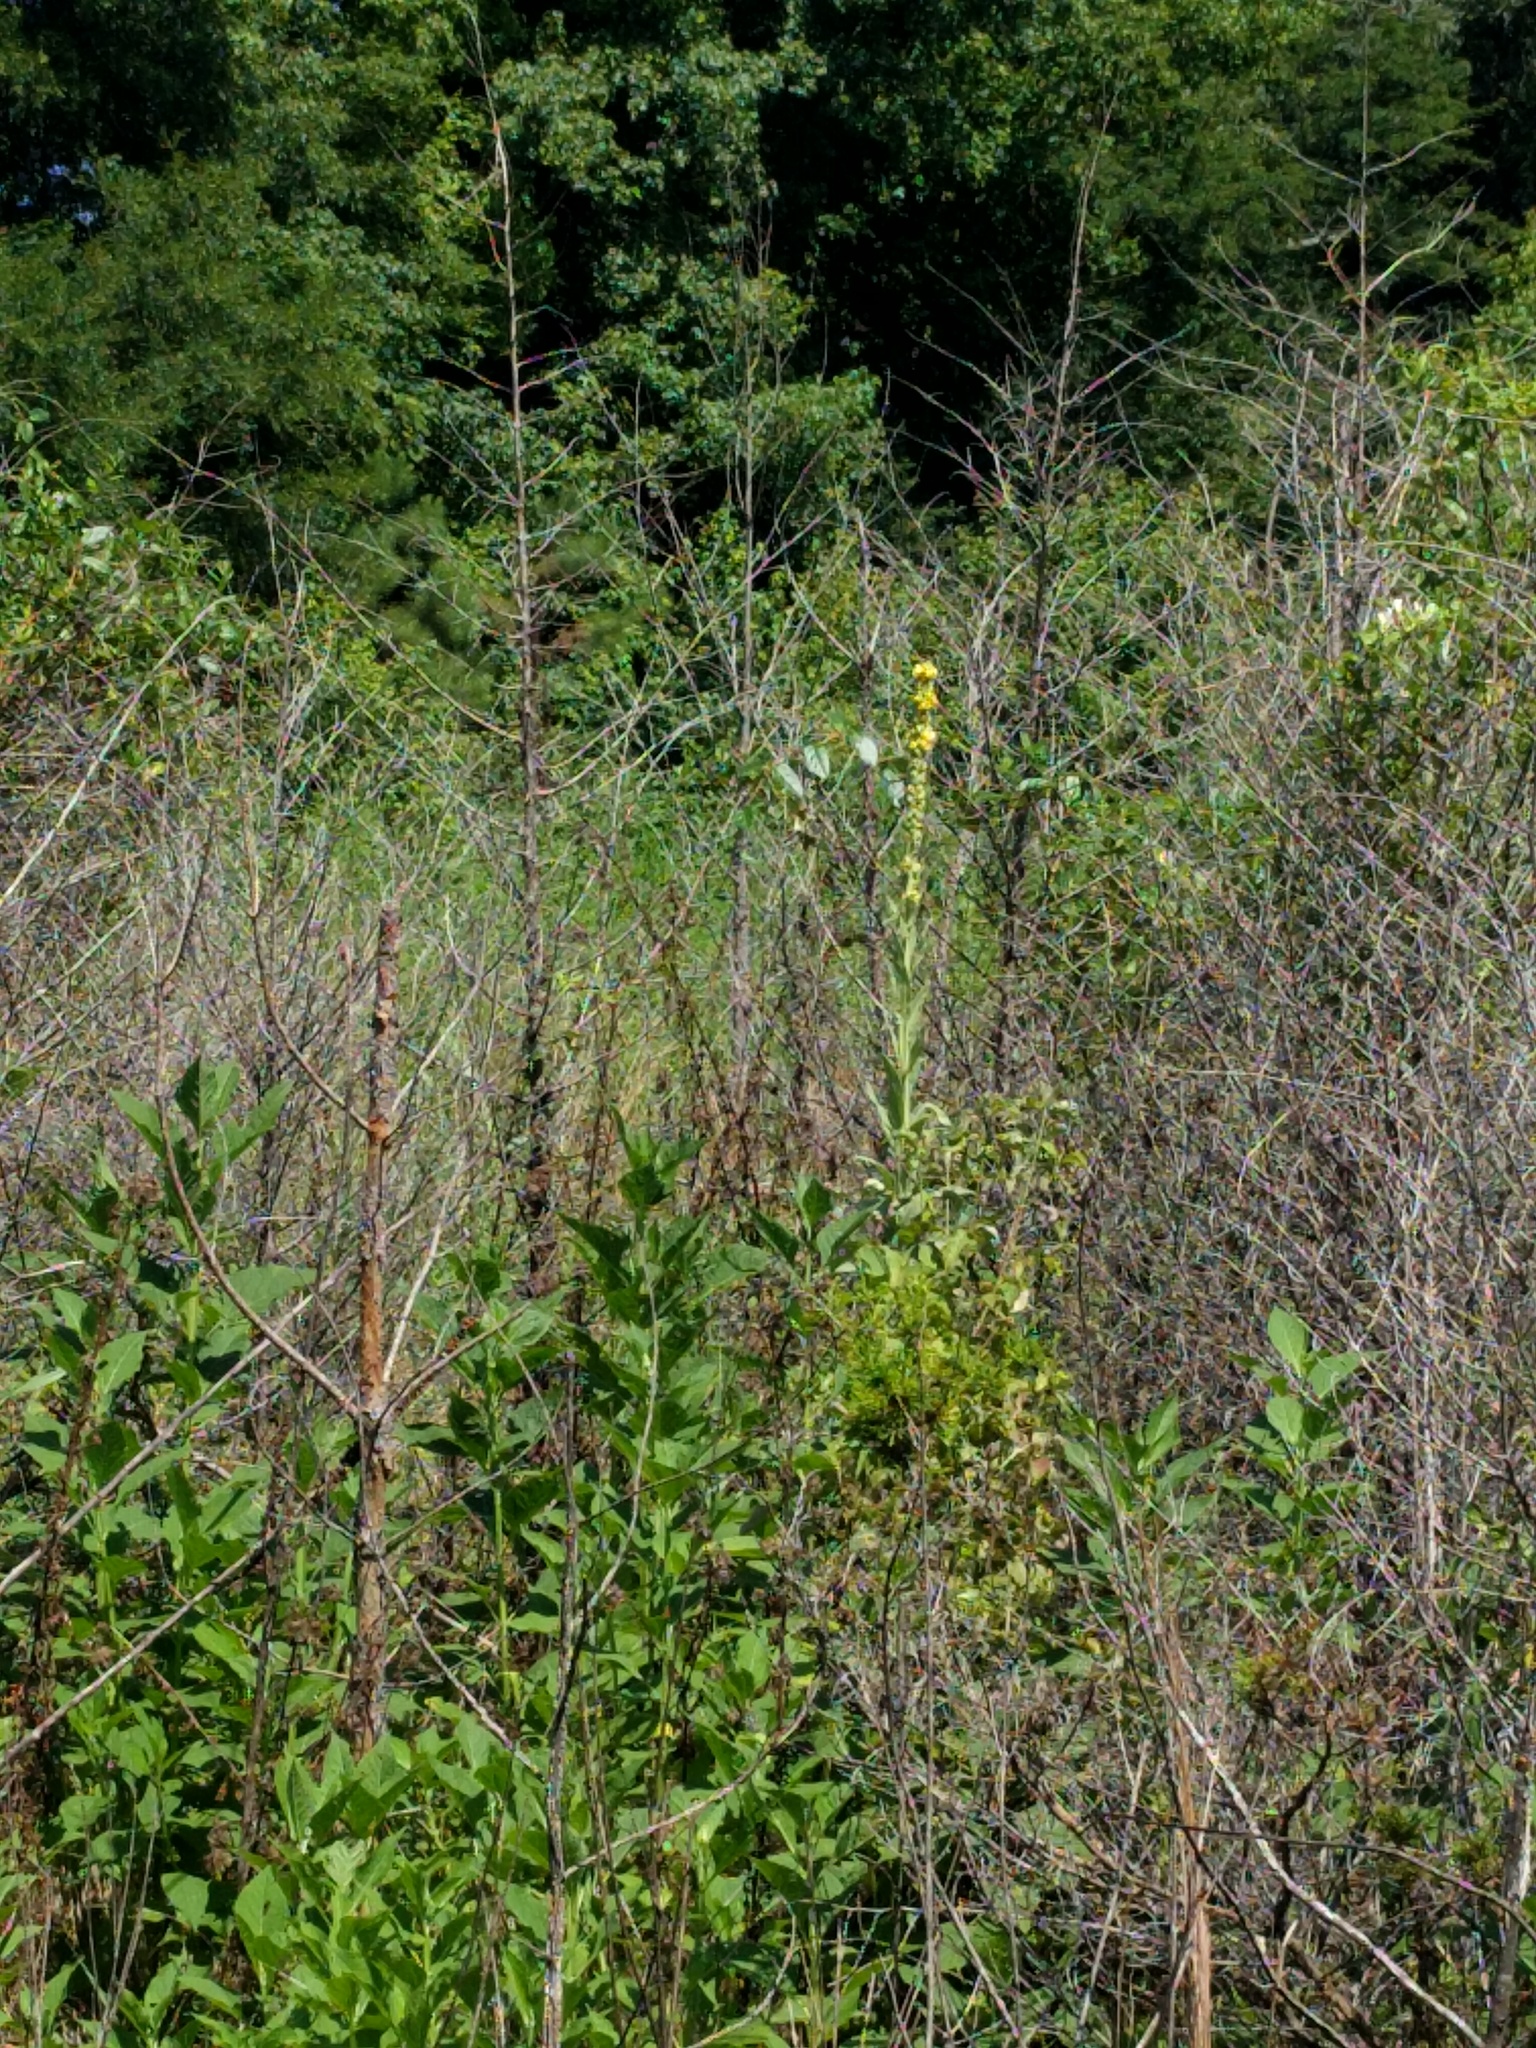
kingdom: Plantae
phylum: Tracheophyta
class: Magnoliopsida
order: Lamiales
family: Scrophulariaceae
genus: Verbascum
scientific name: Verbascum thapsus
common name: Common mullein
